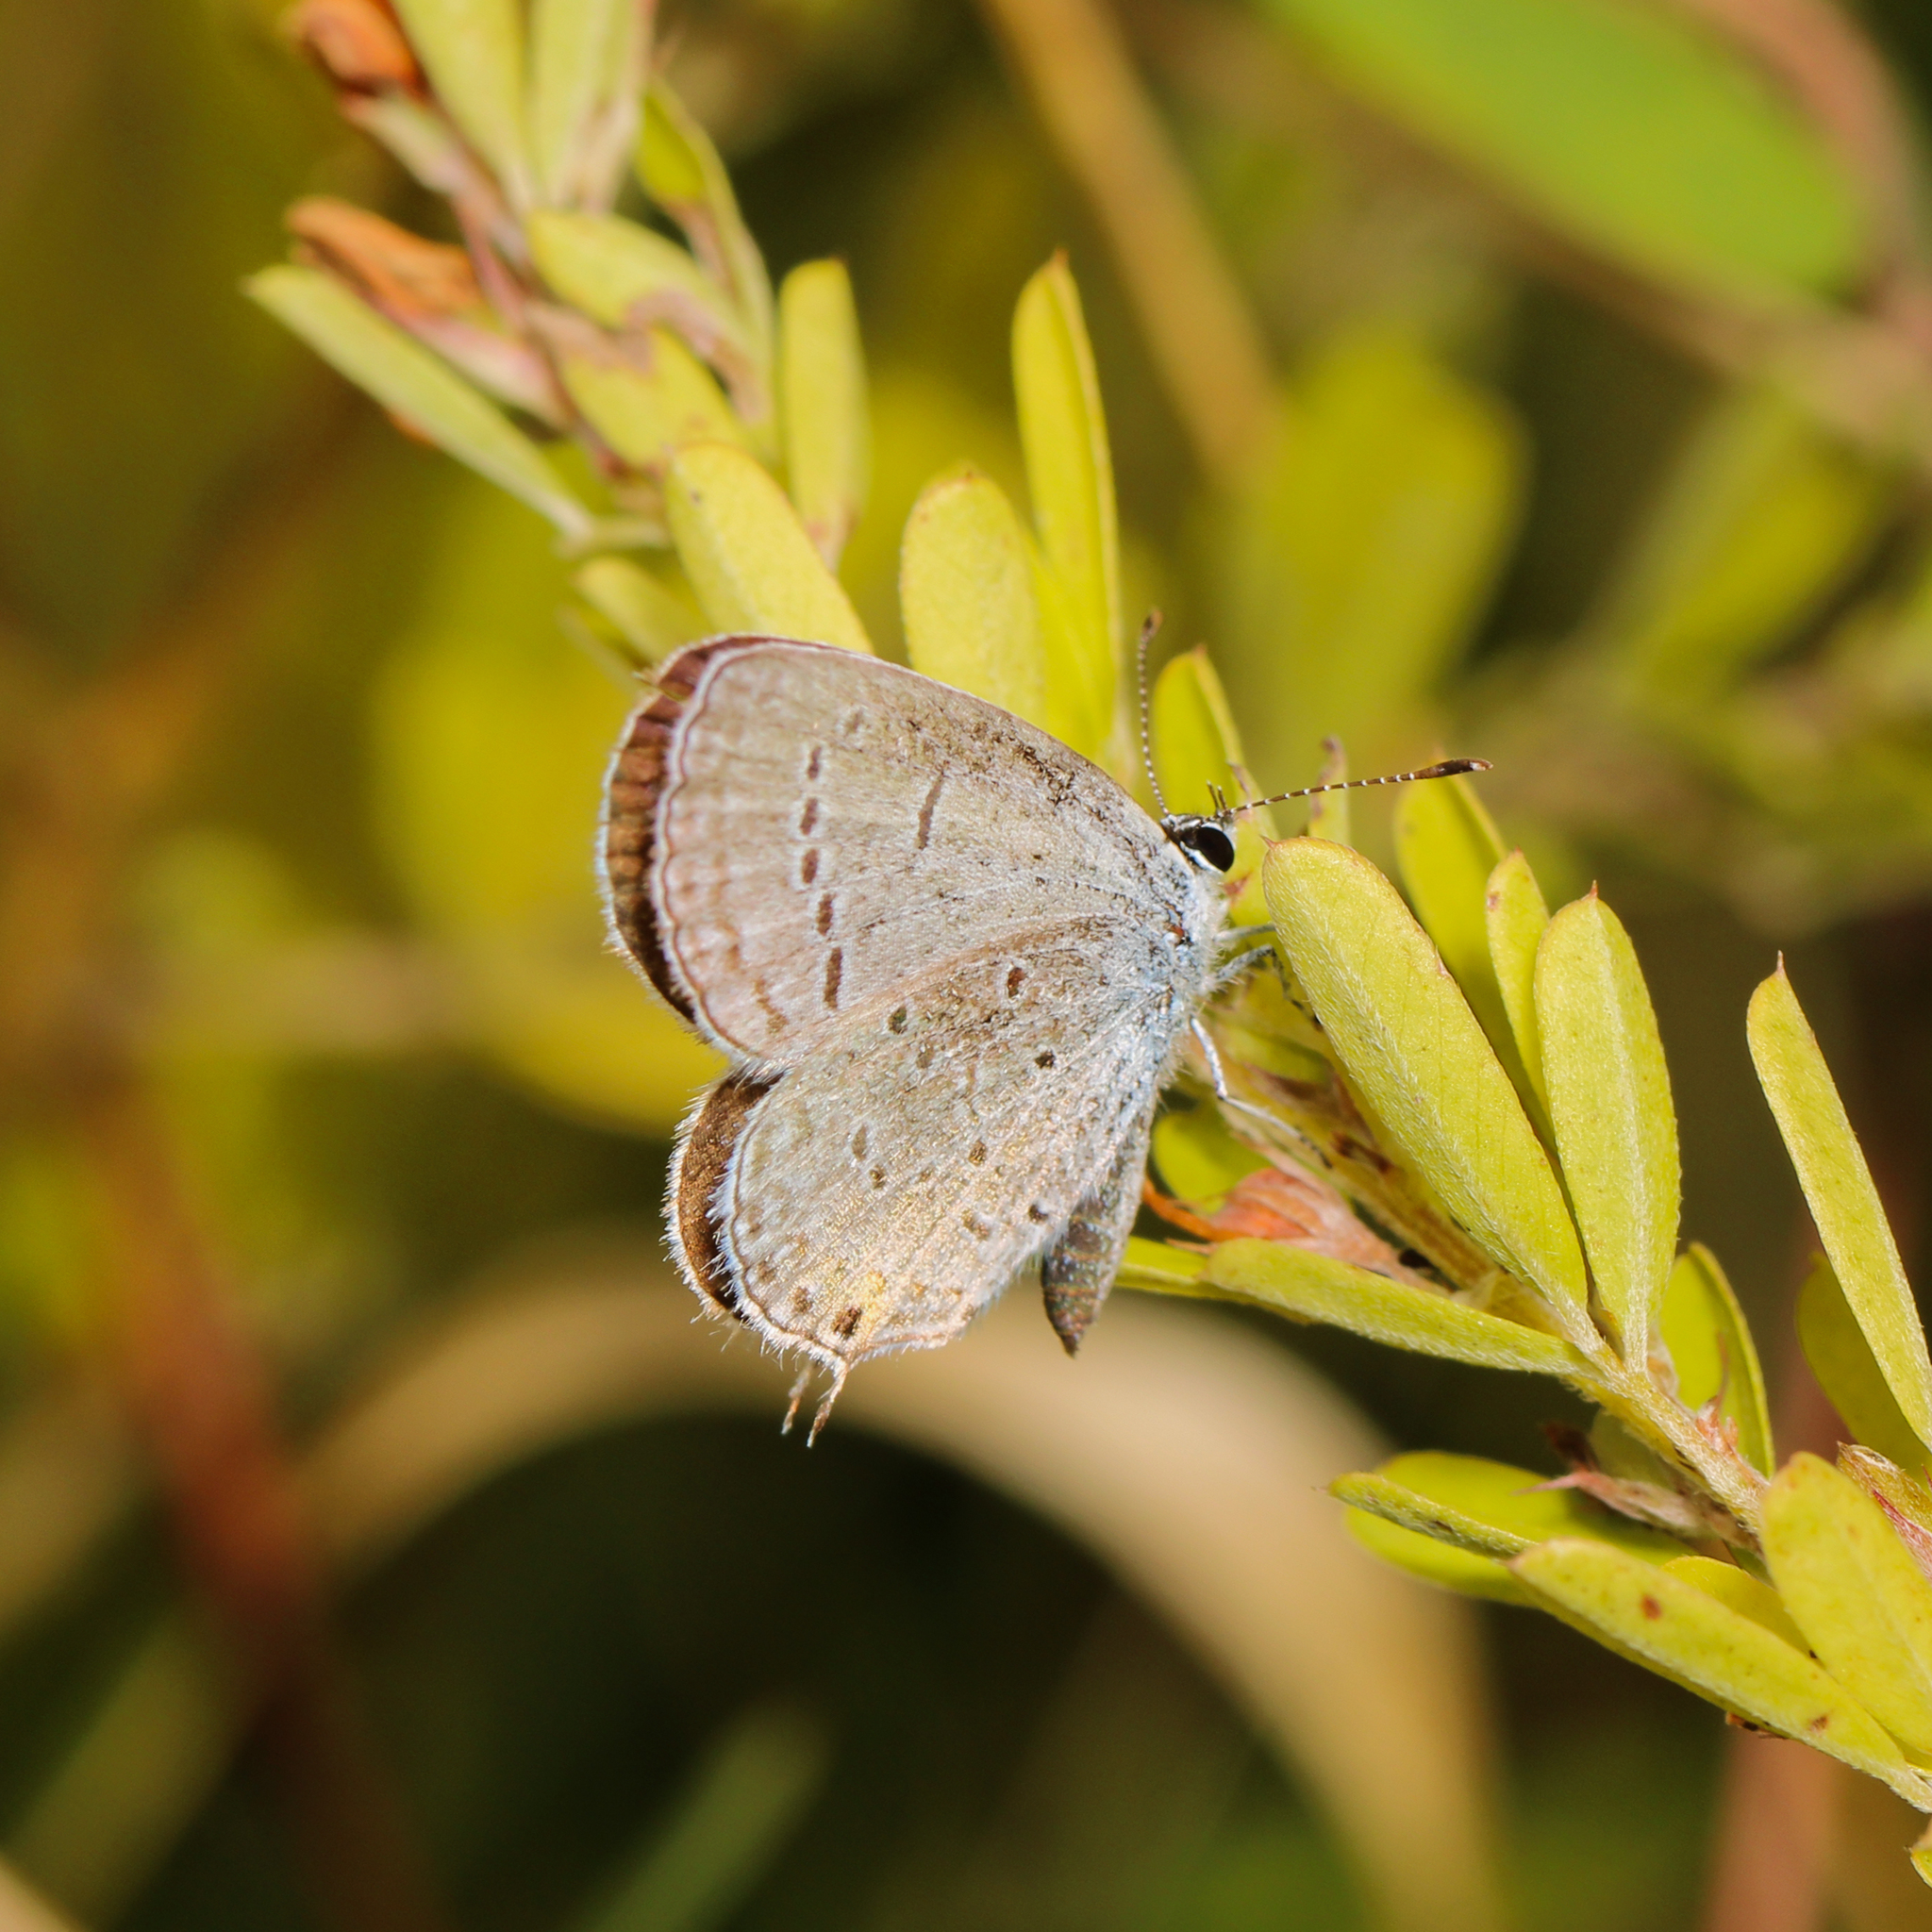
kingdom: Animalia
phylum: Arthropoda
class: Insecta
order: Lepidoptera
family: Lycaenidae
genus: Elkalyce
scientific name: Elkalyce comyntas
